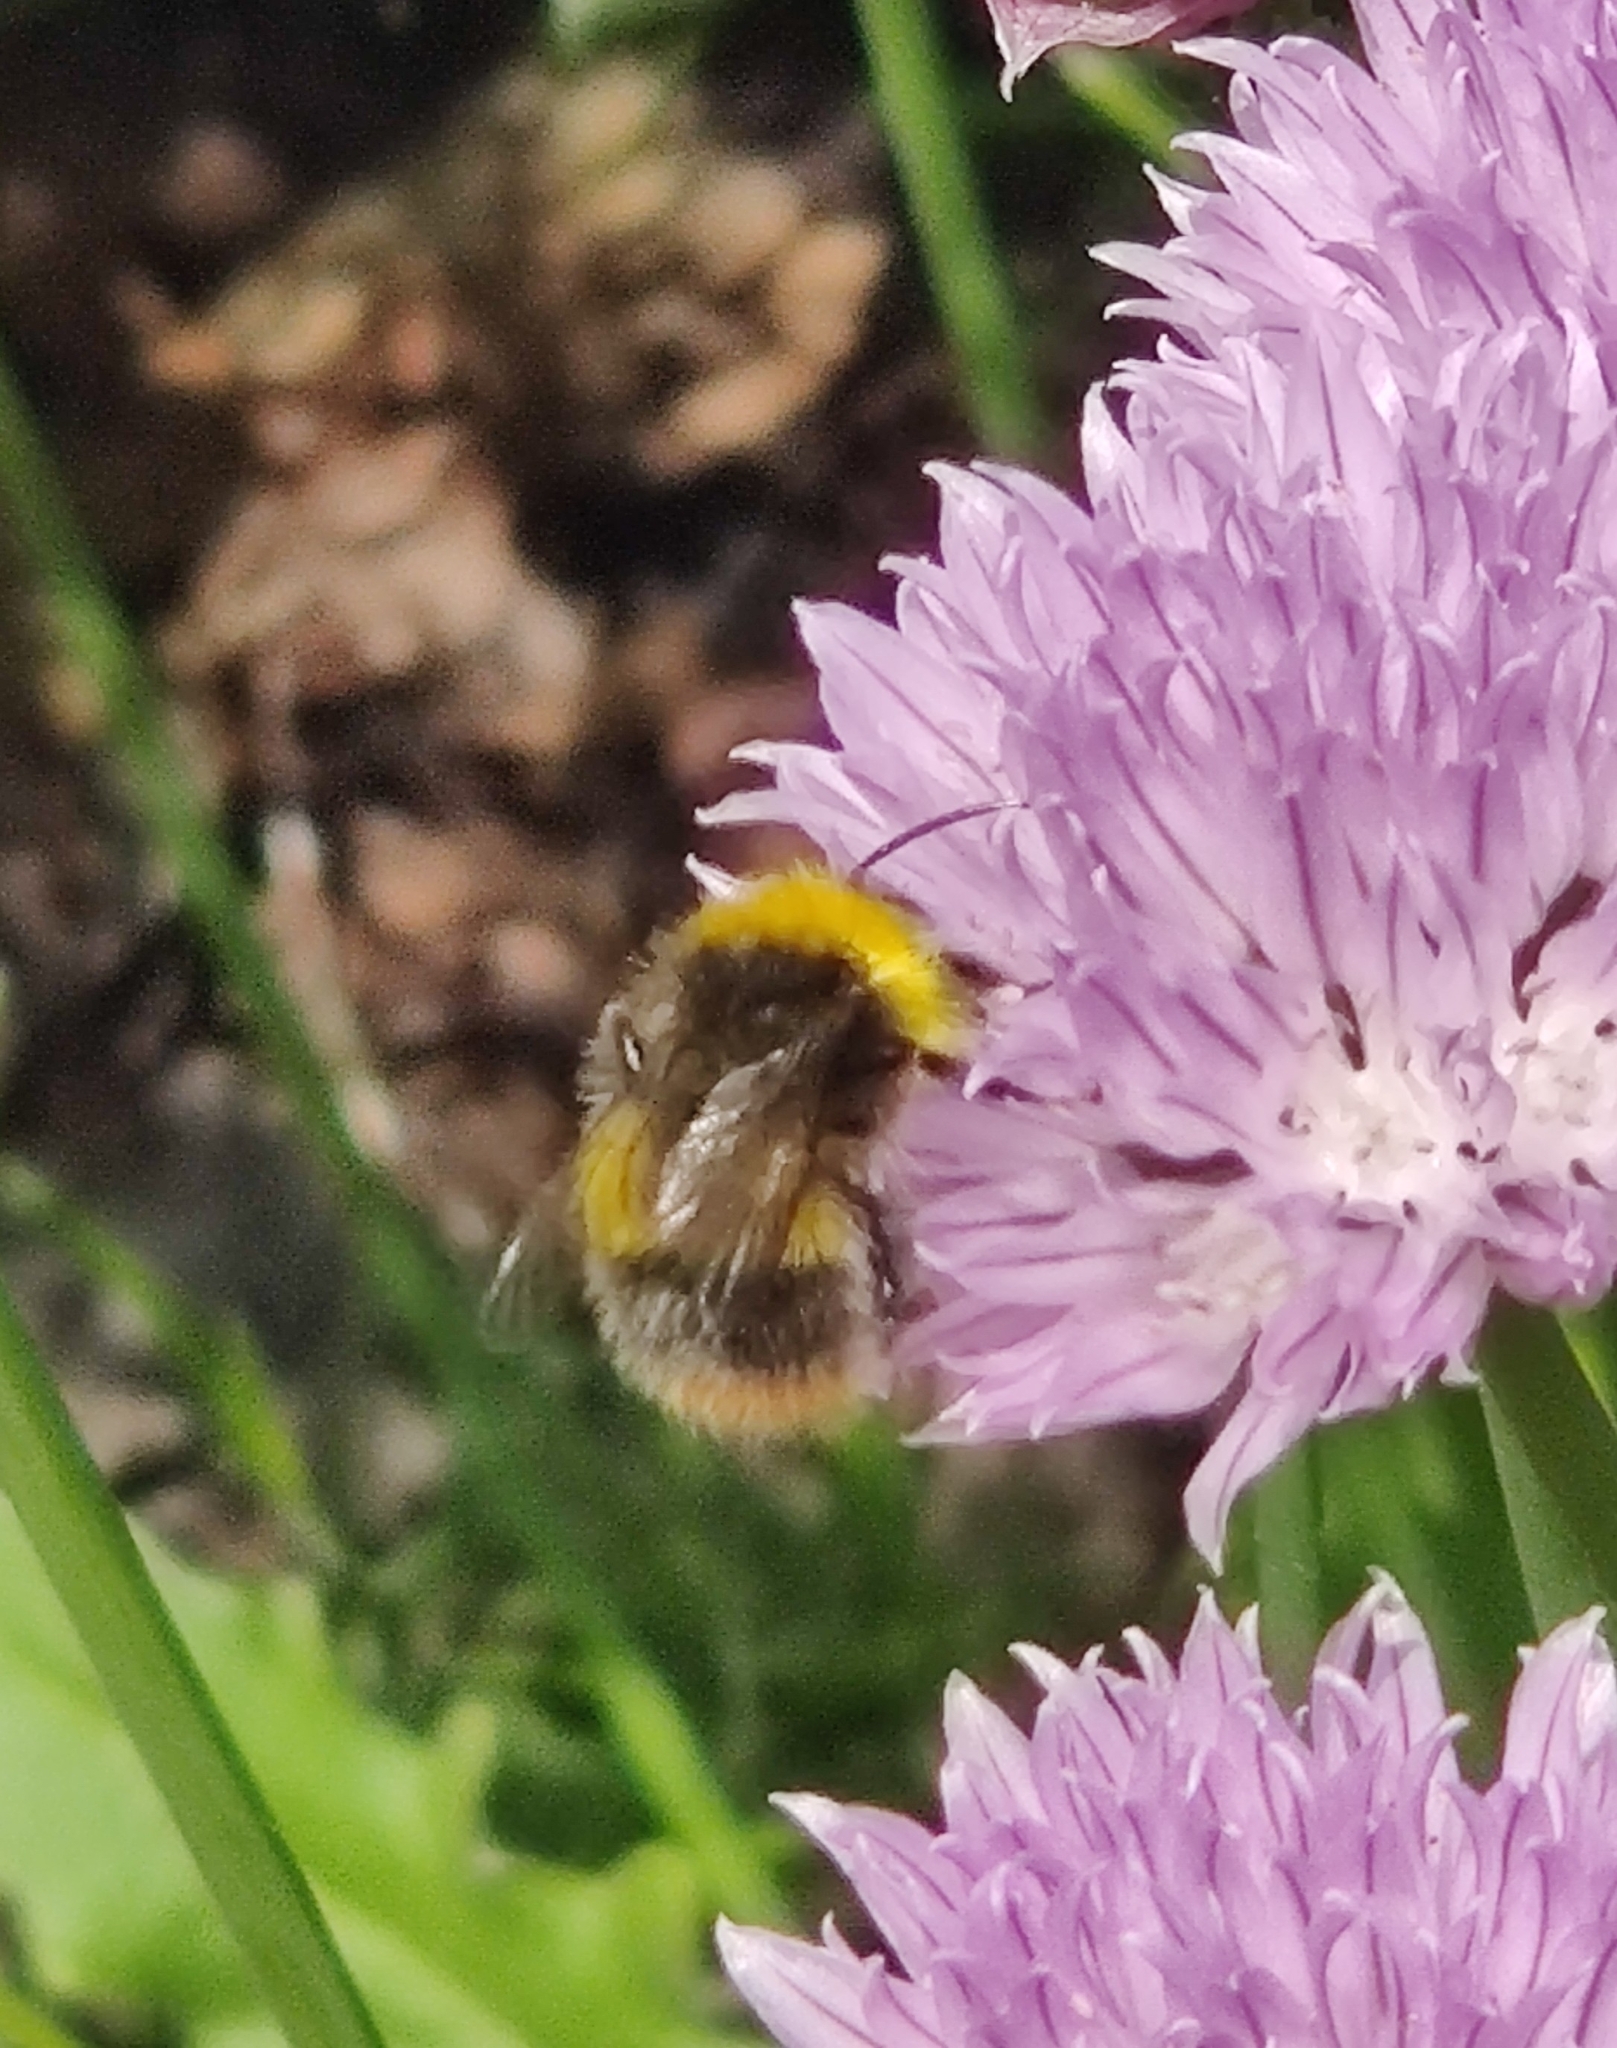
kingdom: Animalia
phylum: Arthropoda
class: Insecta
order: Hymenoptera
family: Apidae
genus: Bombus
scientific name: Bombus pratorum
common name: Early humble-bee
